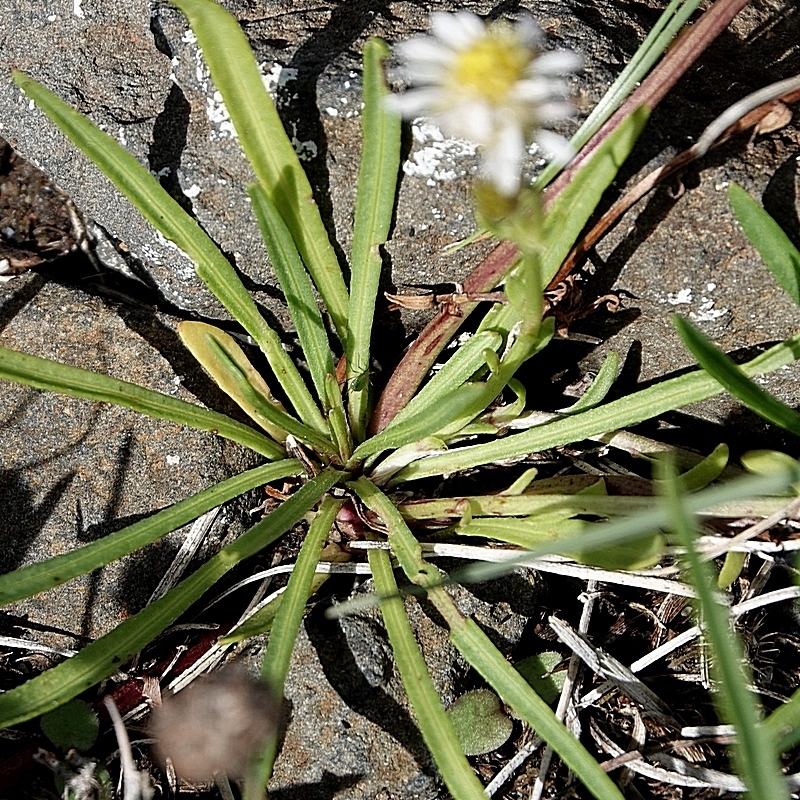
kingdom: Plantae
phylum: Tracheophyta
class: Magnoliopsida
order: Asterales
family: Asteraceae
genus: Calotis
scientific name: Calotis scapigera
